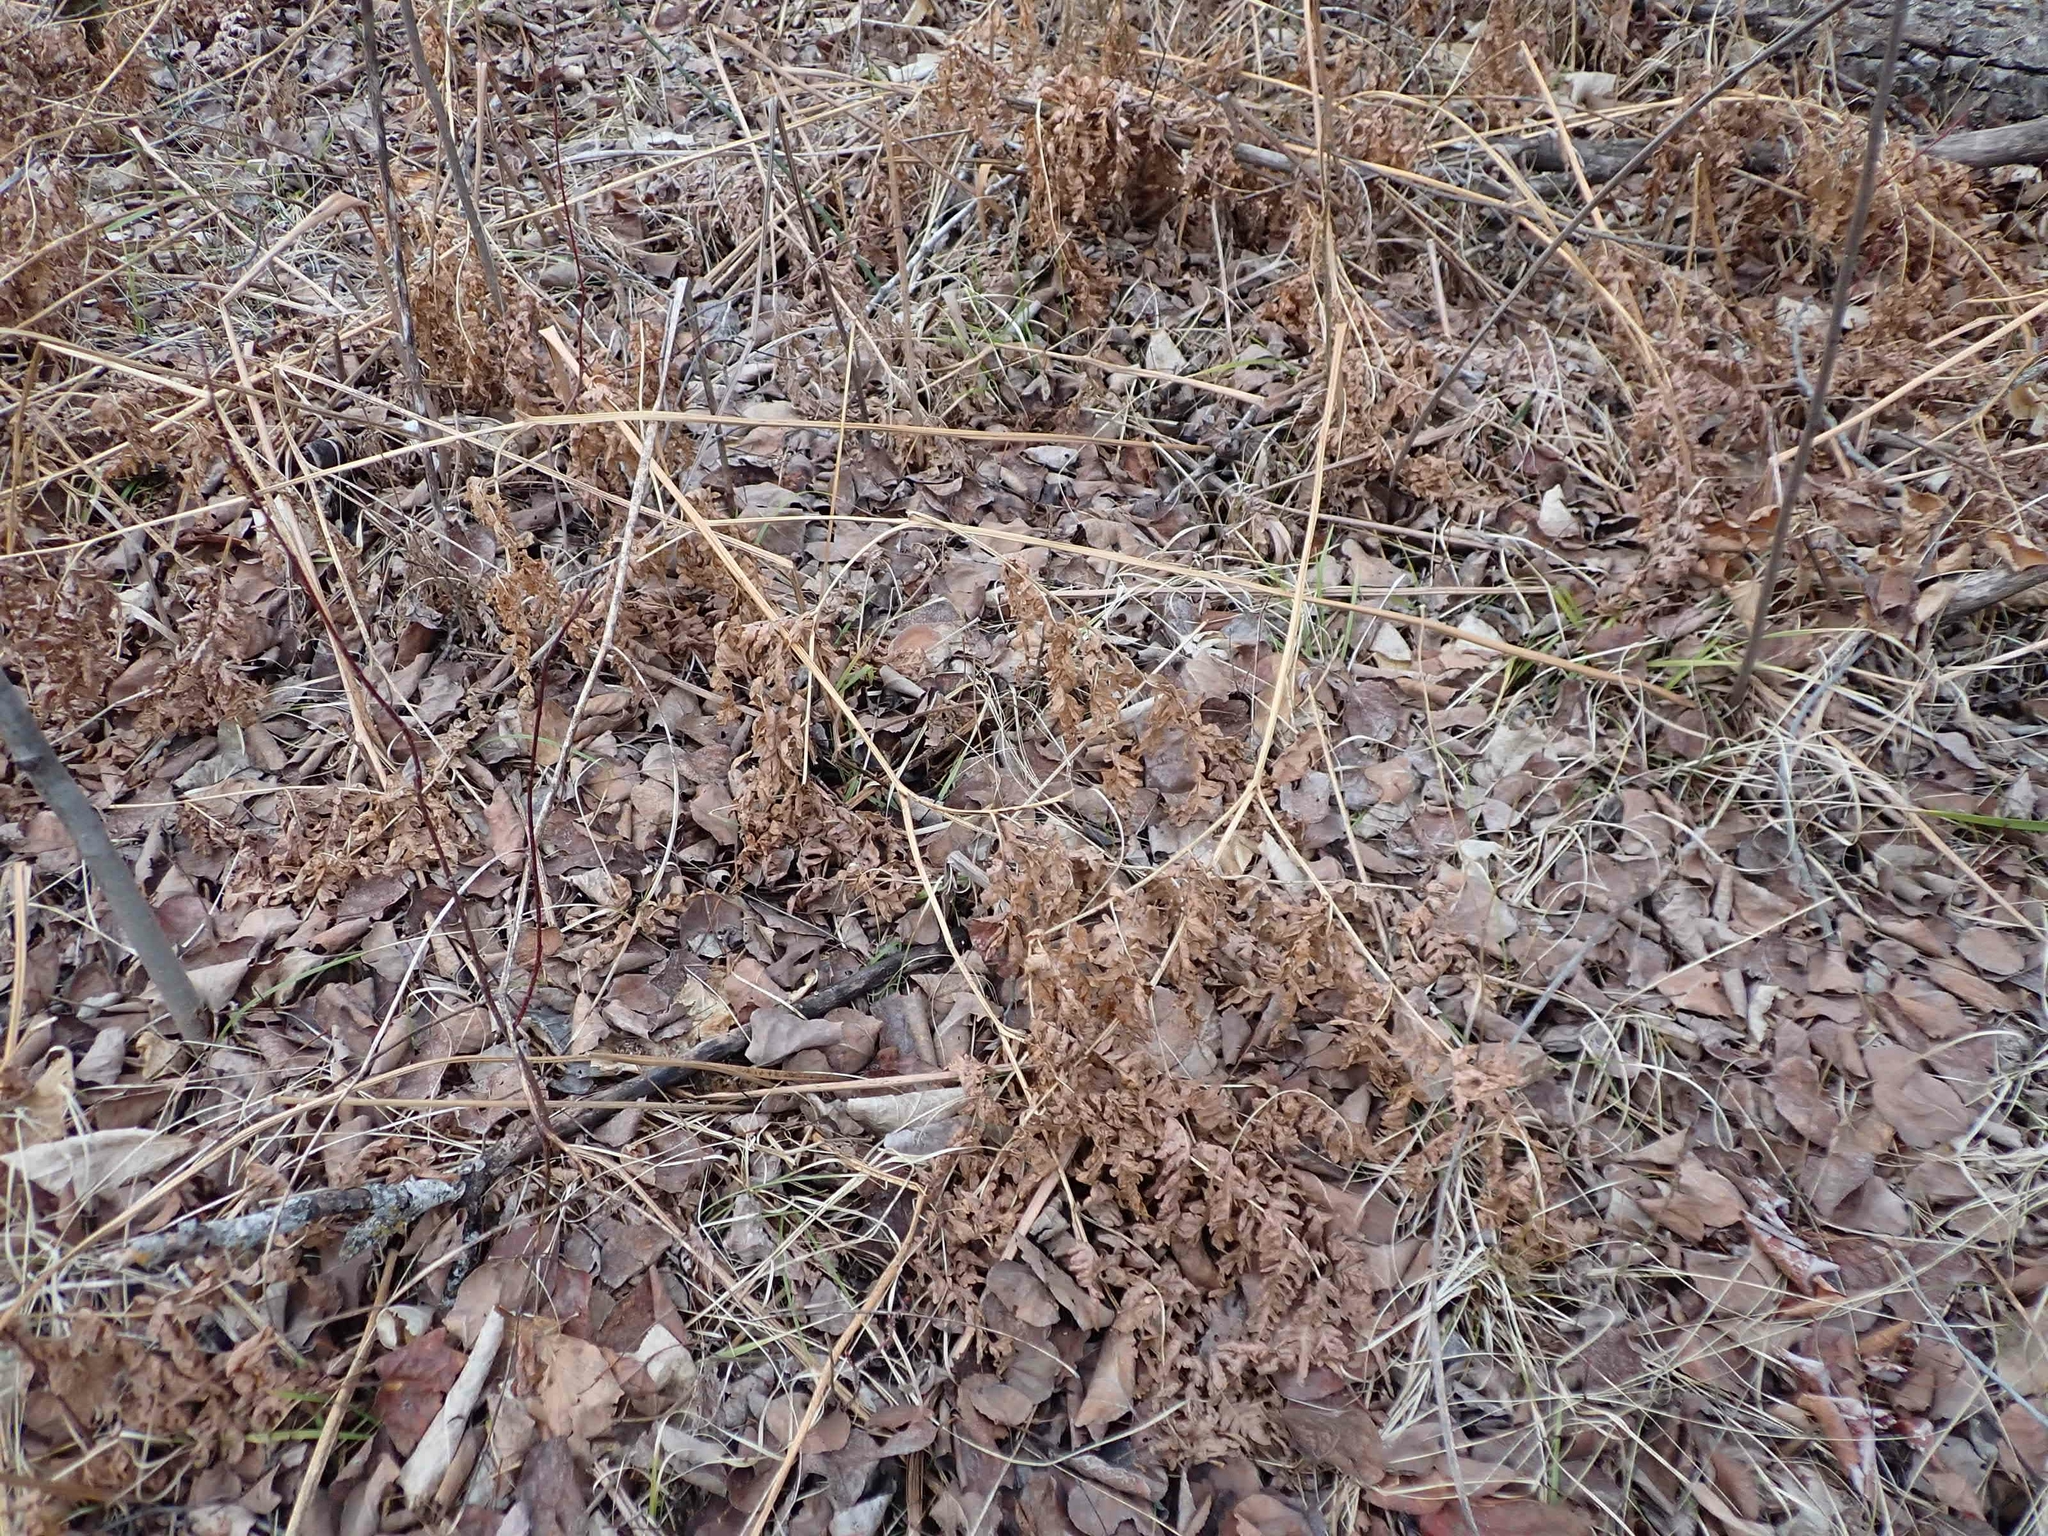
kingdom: Plantae
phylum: Tracheophyta
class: Polypodiopsida
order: Polypodiales
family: Dennstaedtiaceae
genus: Pteridium
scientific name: Pteridium aquilinum
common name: Bracken
